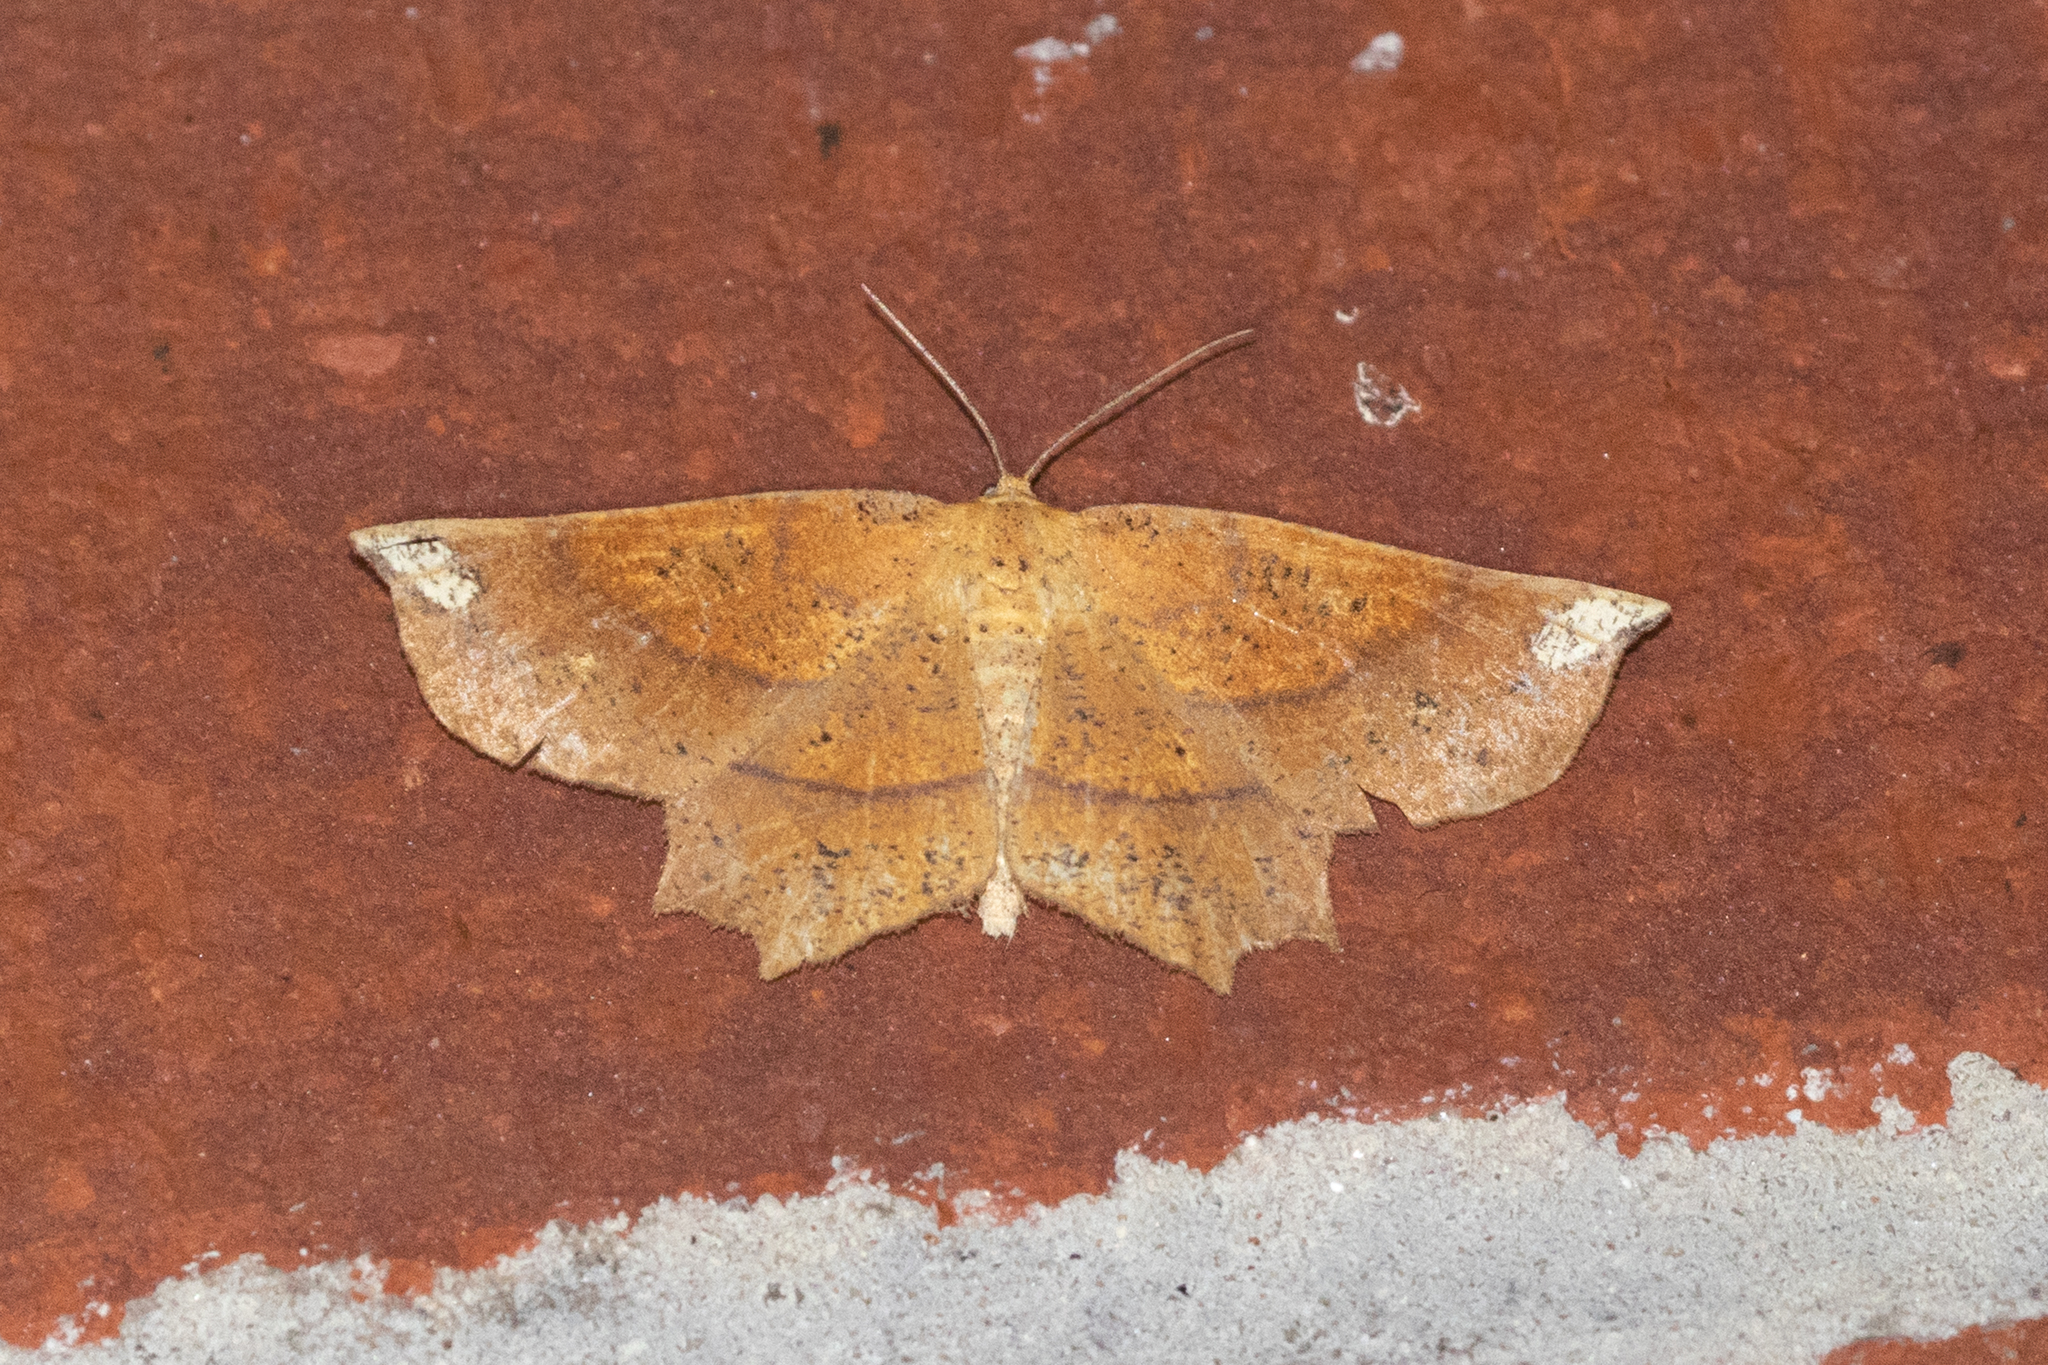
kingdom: Animalia
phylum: Arthropoda
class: Insecta
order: Lepidoptera
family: Geometridae
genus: Euchlaena
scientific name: Euchlaena amoenaria
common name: Deep yellow euchlaena
